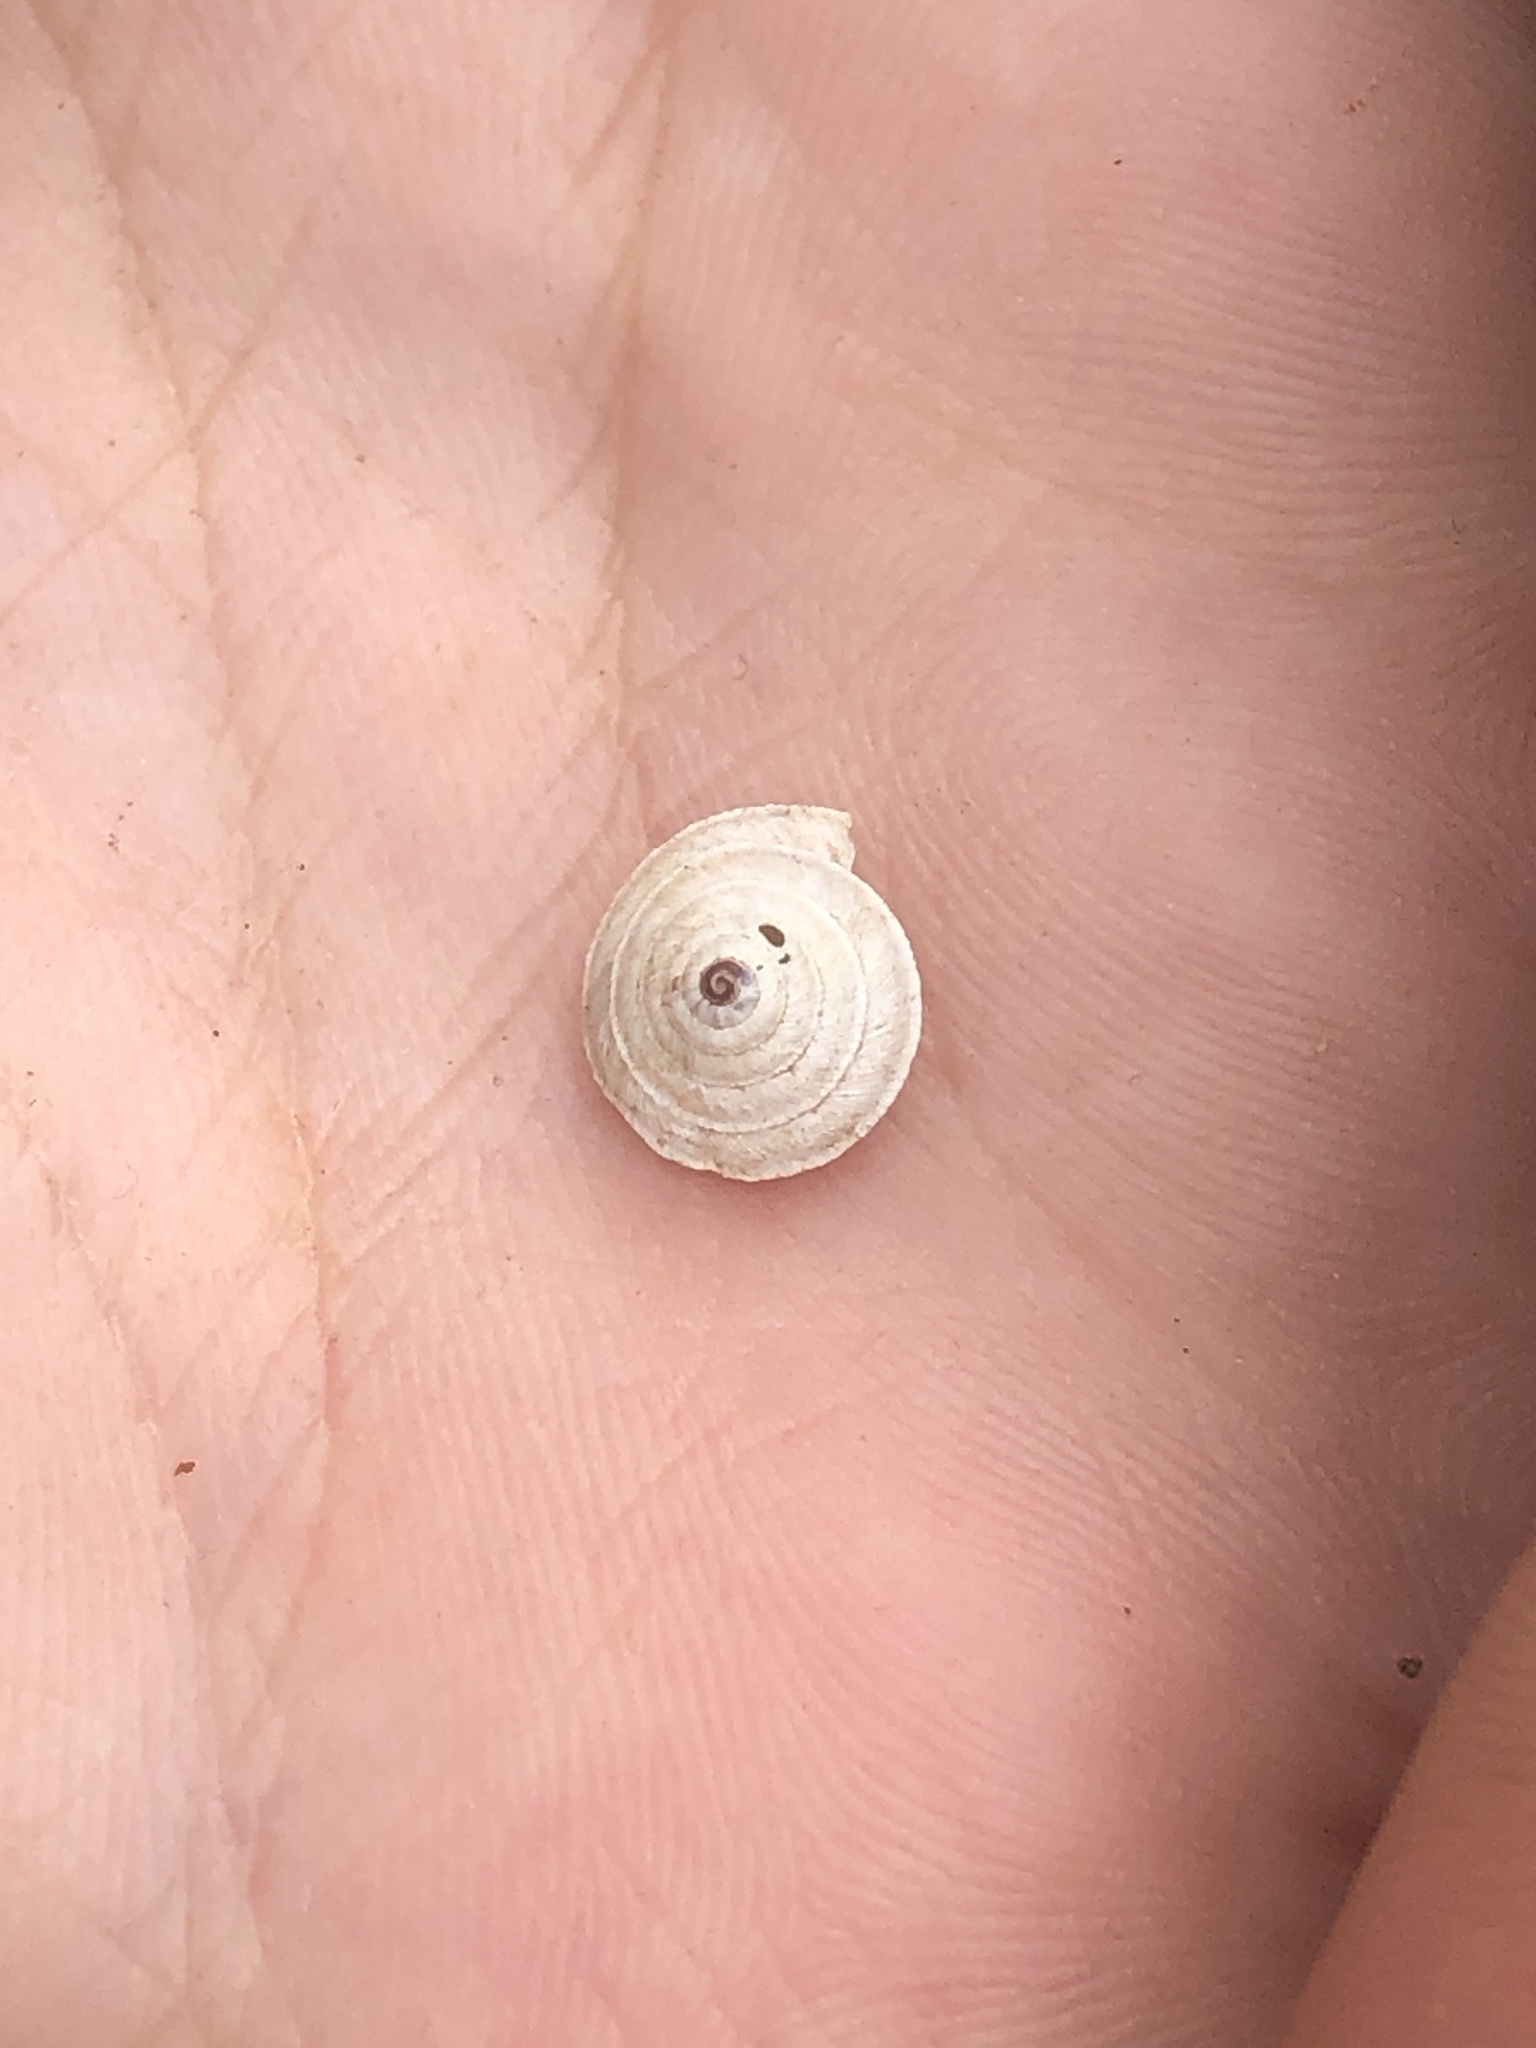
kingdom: Animalia
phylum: Mollusca
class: Gastropoda
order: Stylommatophora
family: Geomitridae
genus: Trochoidea
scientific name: Trochoidea elegans
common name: Elegant helicellid
